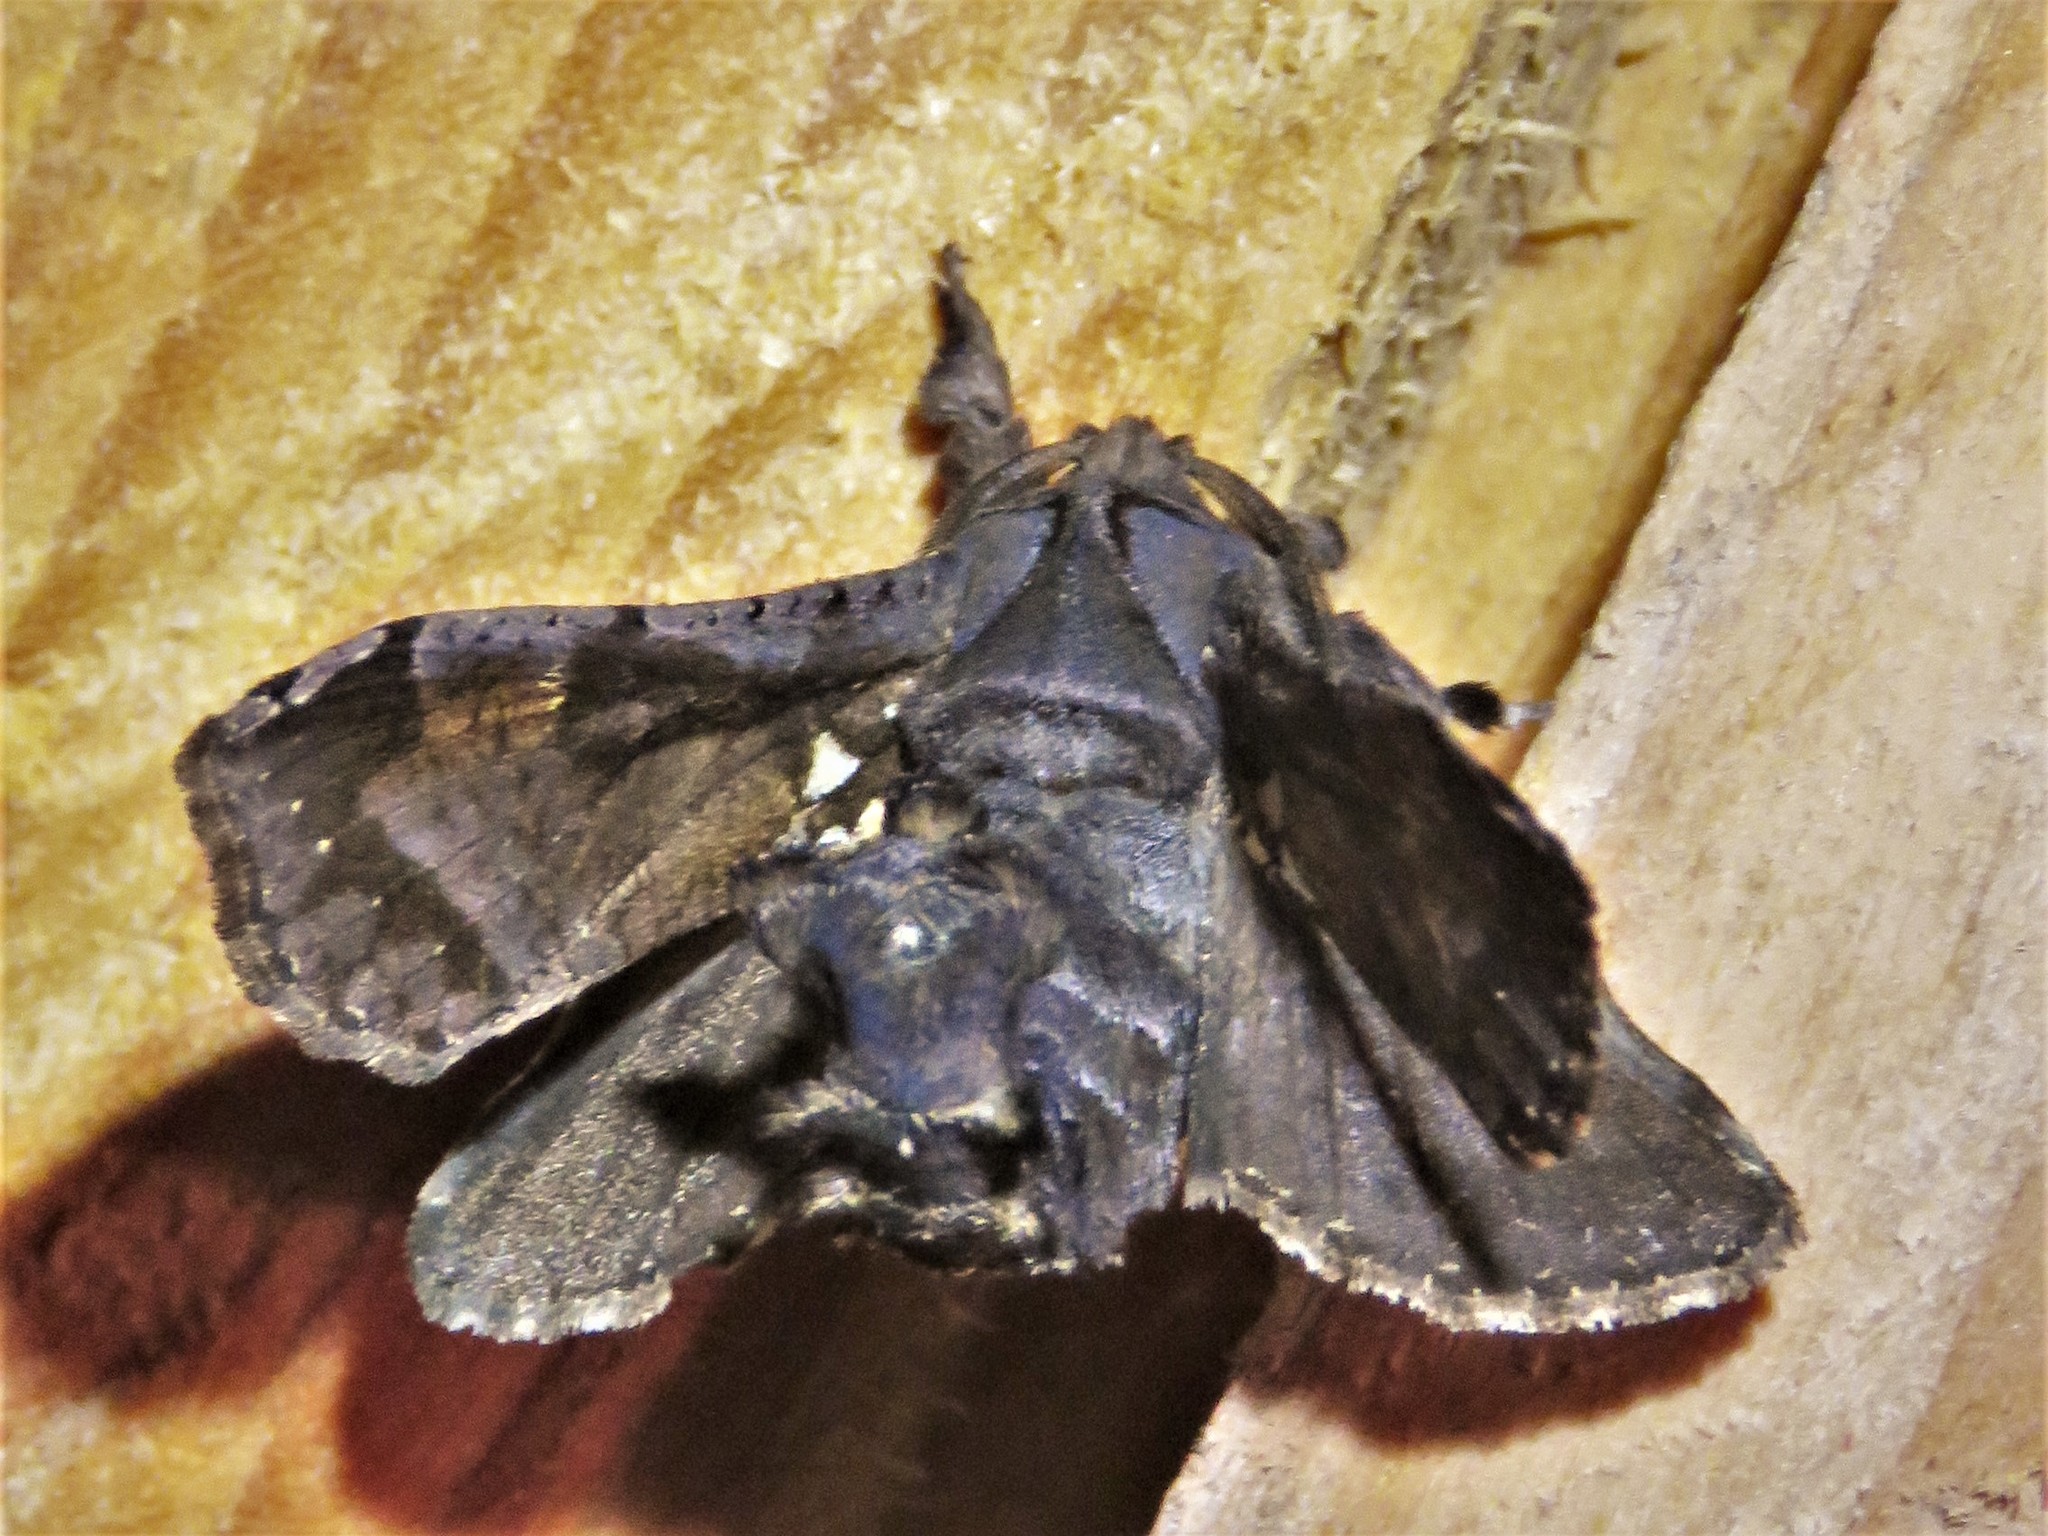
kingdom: Animalia
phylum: Arthropoda
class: Insecta
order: Lepidoptera
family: Cossidae
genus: Langsdorfia
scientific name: Langsdorfia franckii
